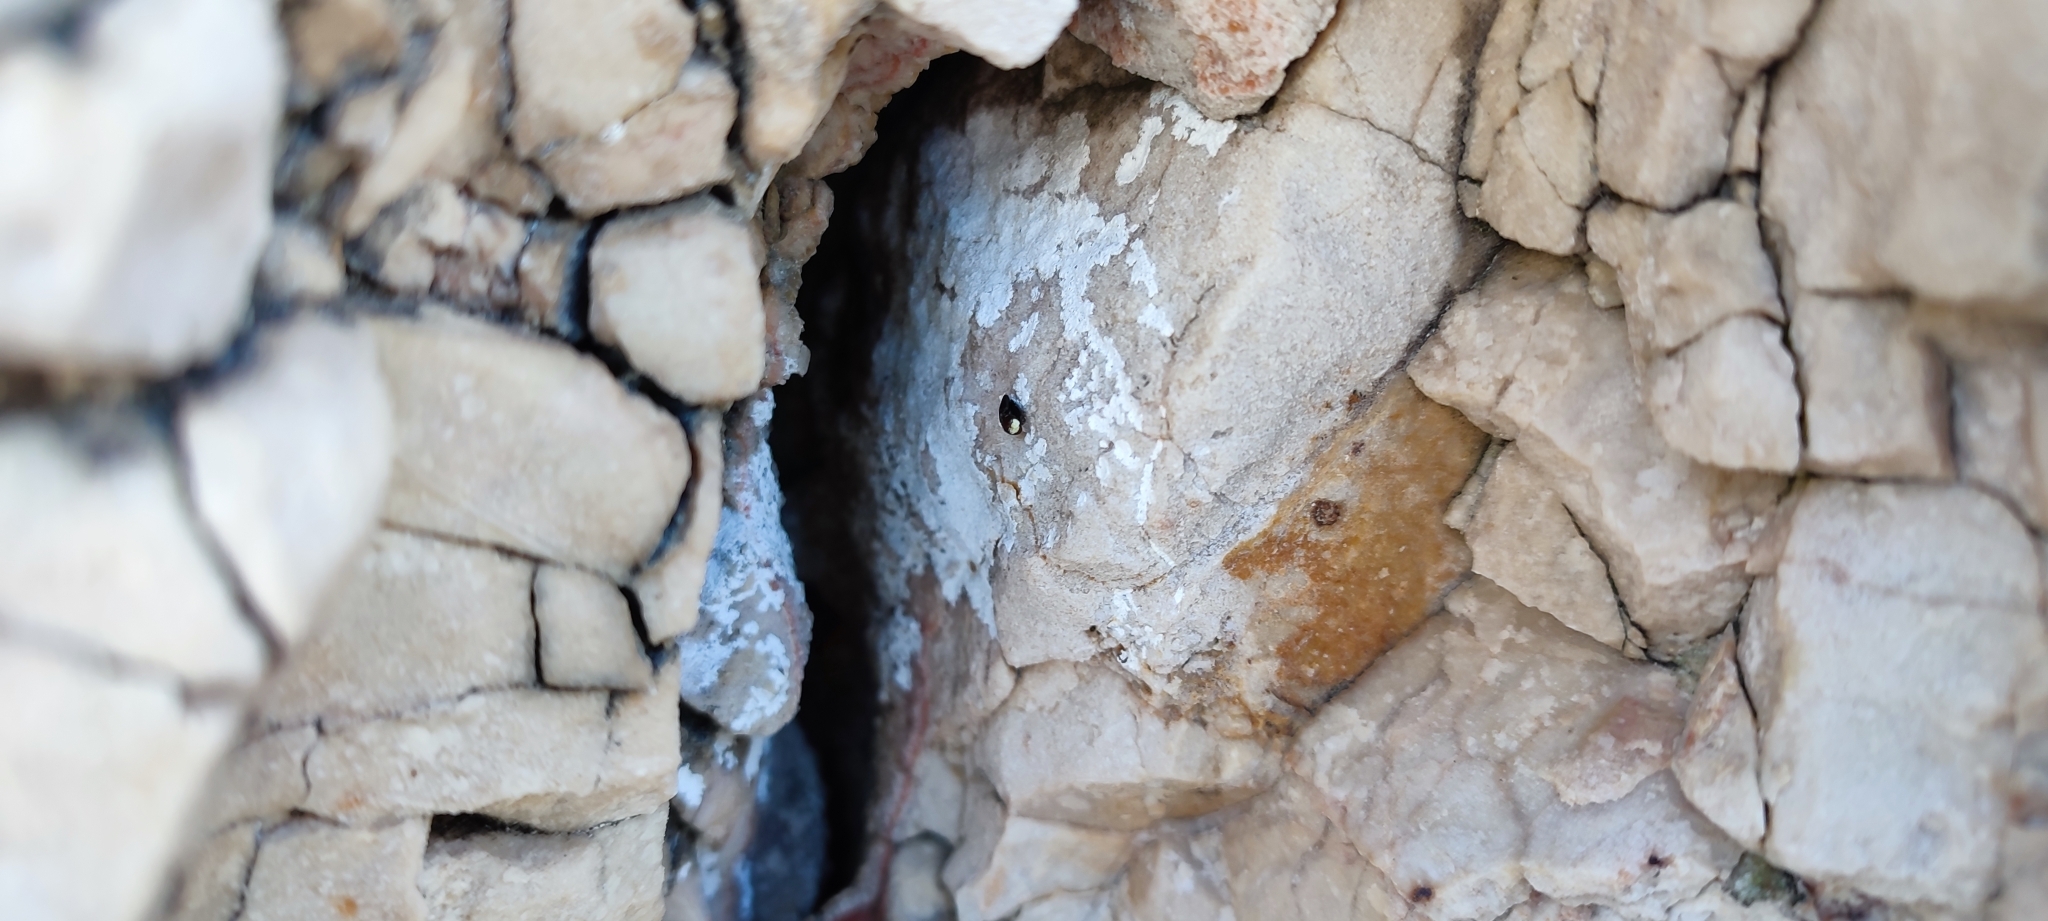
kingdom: Animalia
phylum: Chordata
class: Squamata
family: Sphaerodactylidae
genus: Euleptes
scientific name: Euleptes europaea
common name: English common name not available
